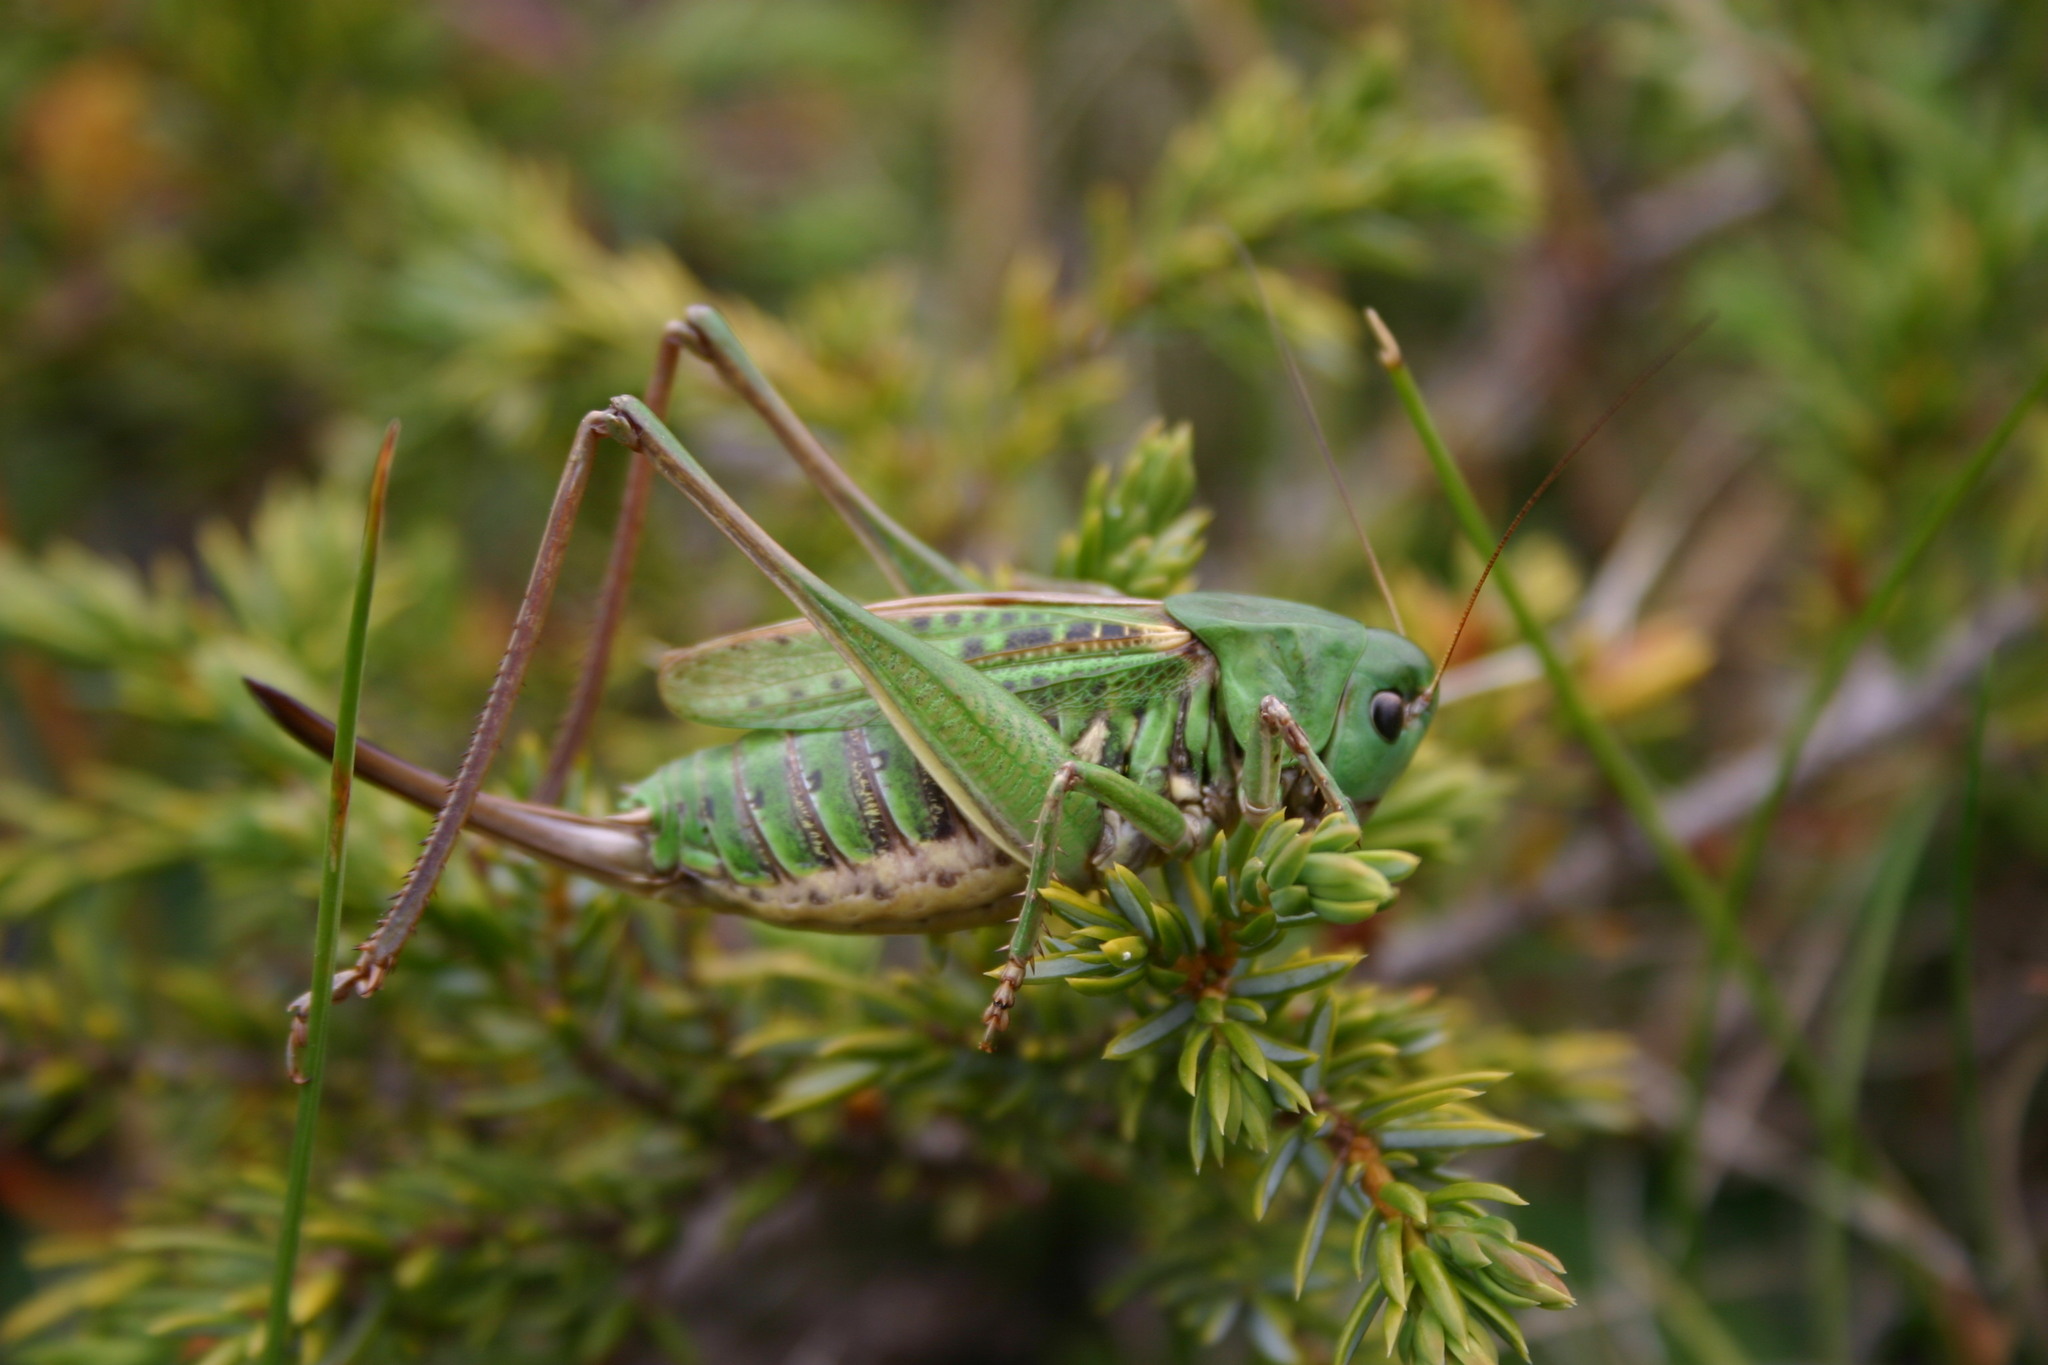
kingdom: Animalia
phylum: Arthropoda
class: Insecta
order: Orthoptera
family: Tettigoniidae
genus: Decticus
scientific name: Decticus verrucivorus
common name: Wart-biter
